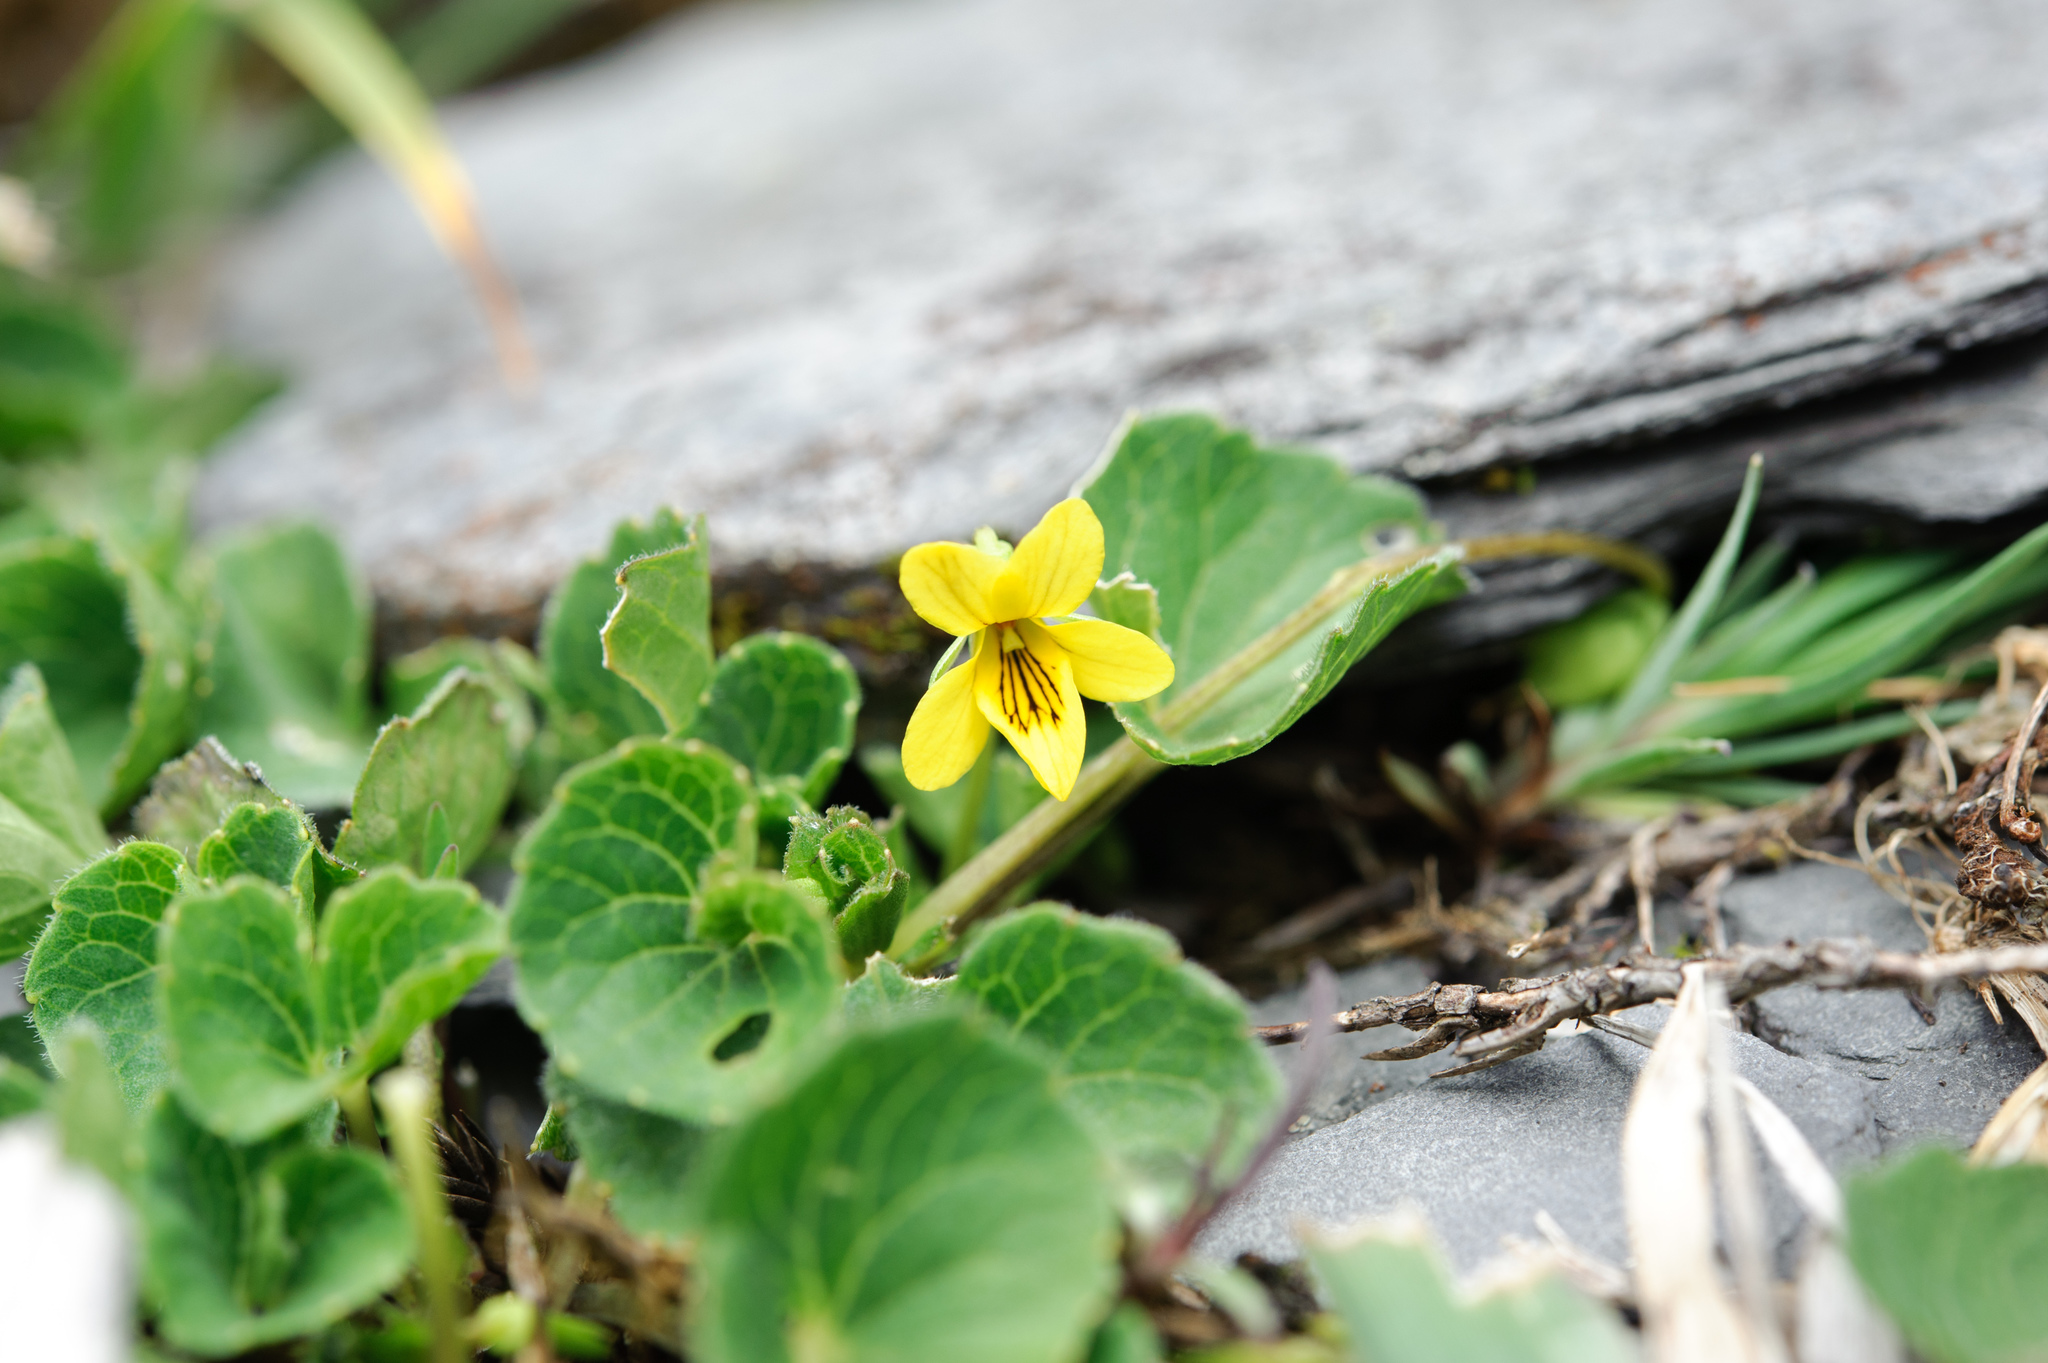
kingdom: Plantae
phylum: Tracheophyta
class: Magnoliopsida
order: Malpighiales
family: Violaceae
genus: Viola
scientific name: Viola biflora
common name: Alpine yellow violet
